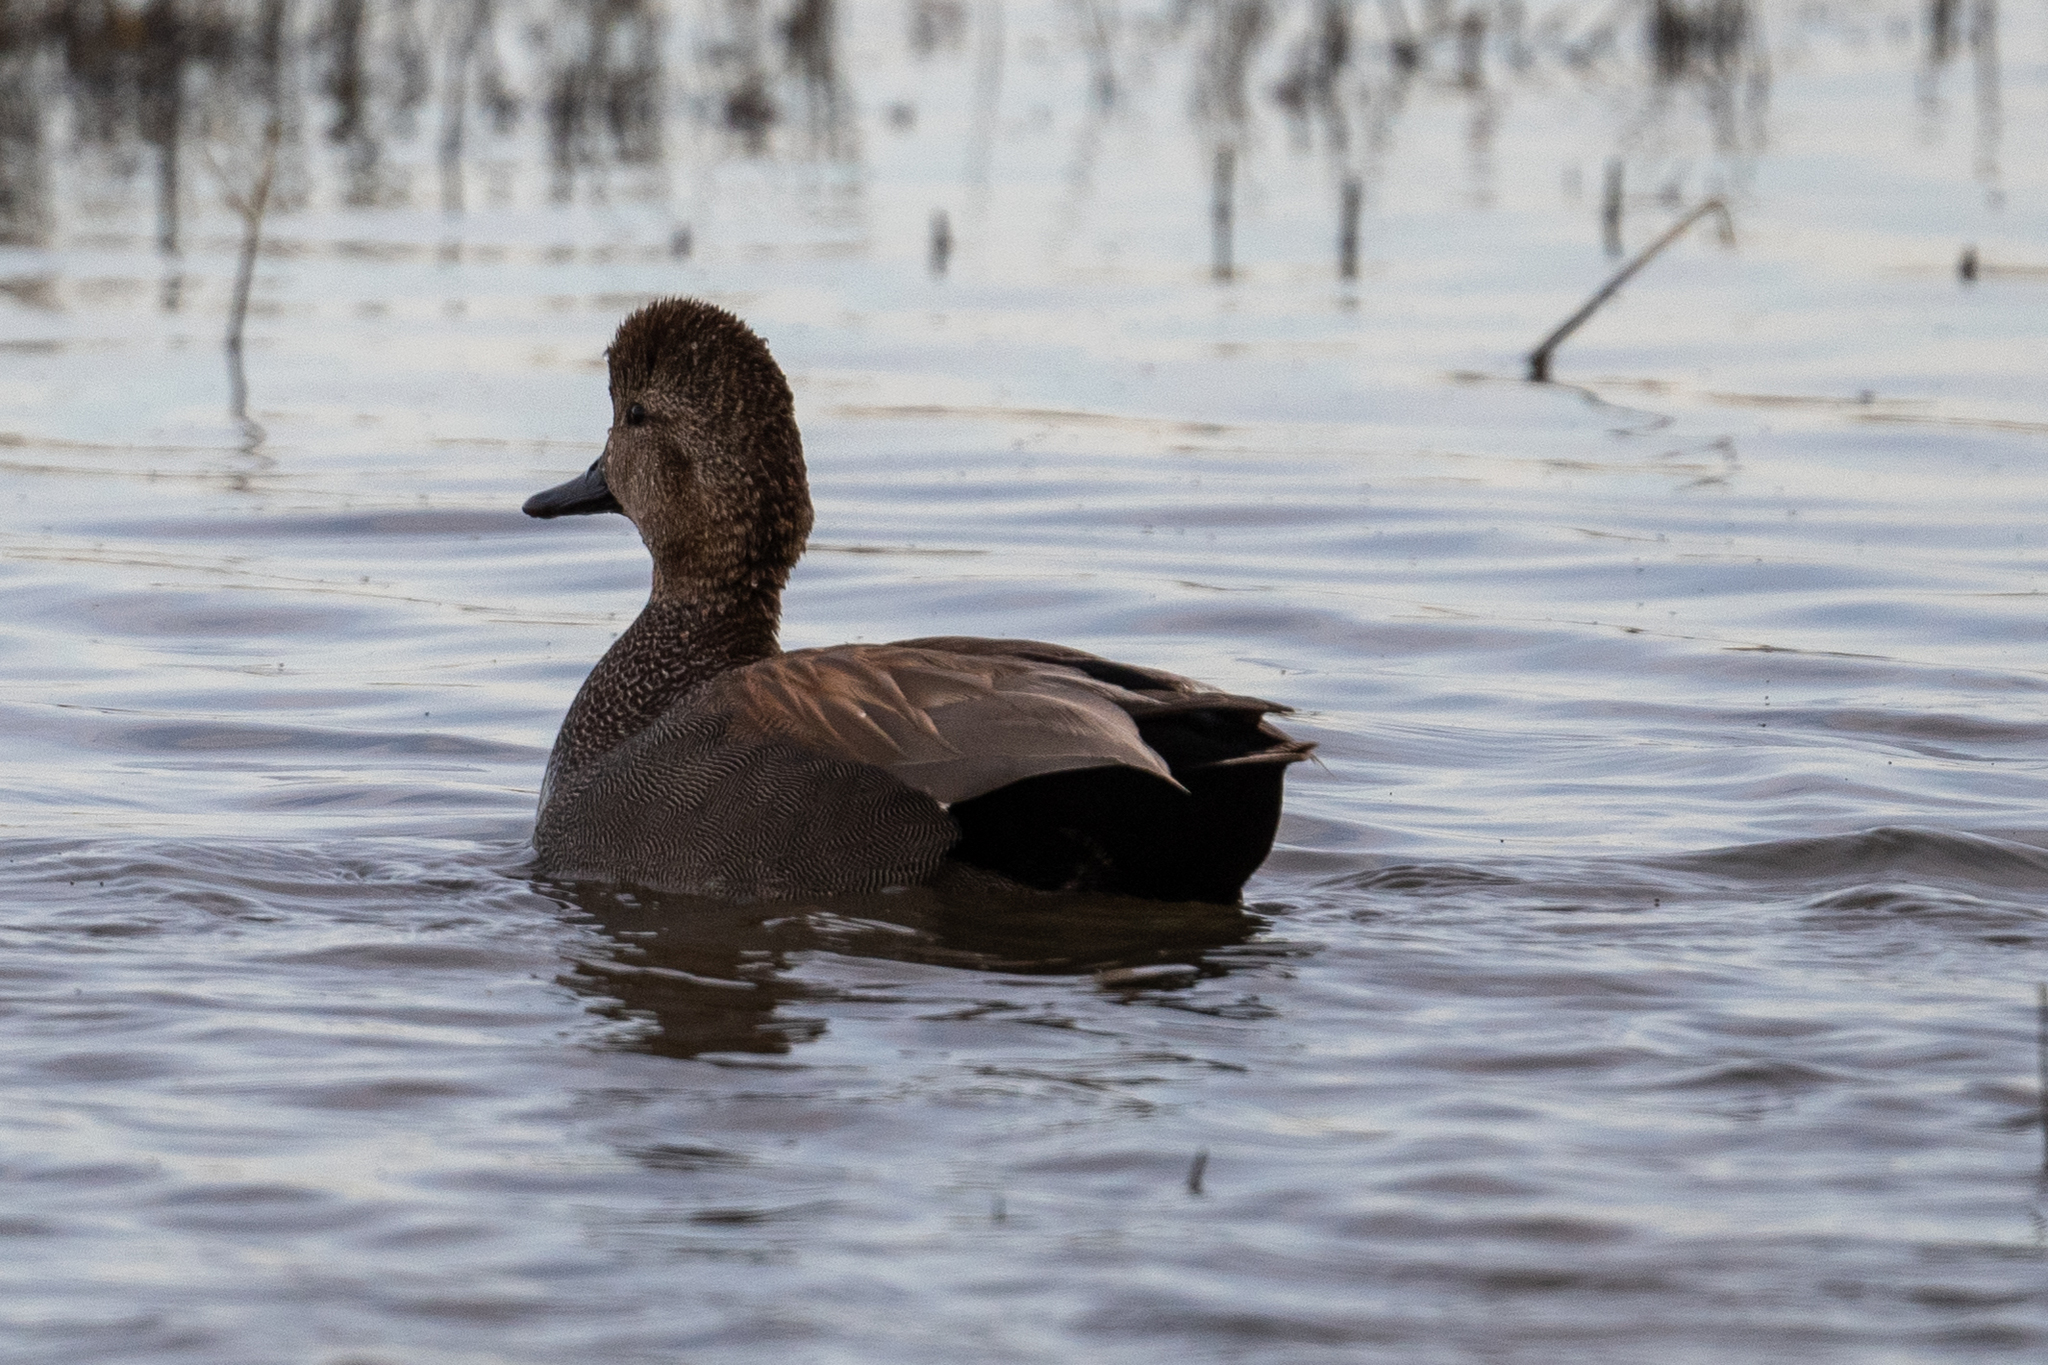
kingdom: Animalia
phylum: Chordata
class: Aves
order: Anseriformes
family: Anatidae
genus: Mareca
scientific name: Mareca strepera
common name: Gadwall
